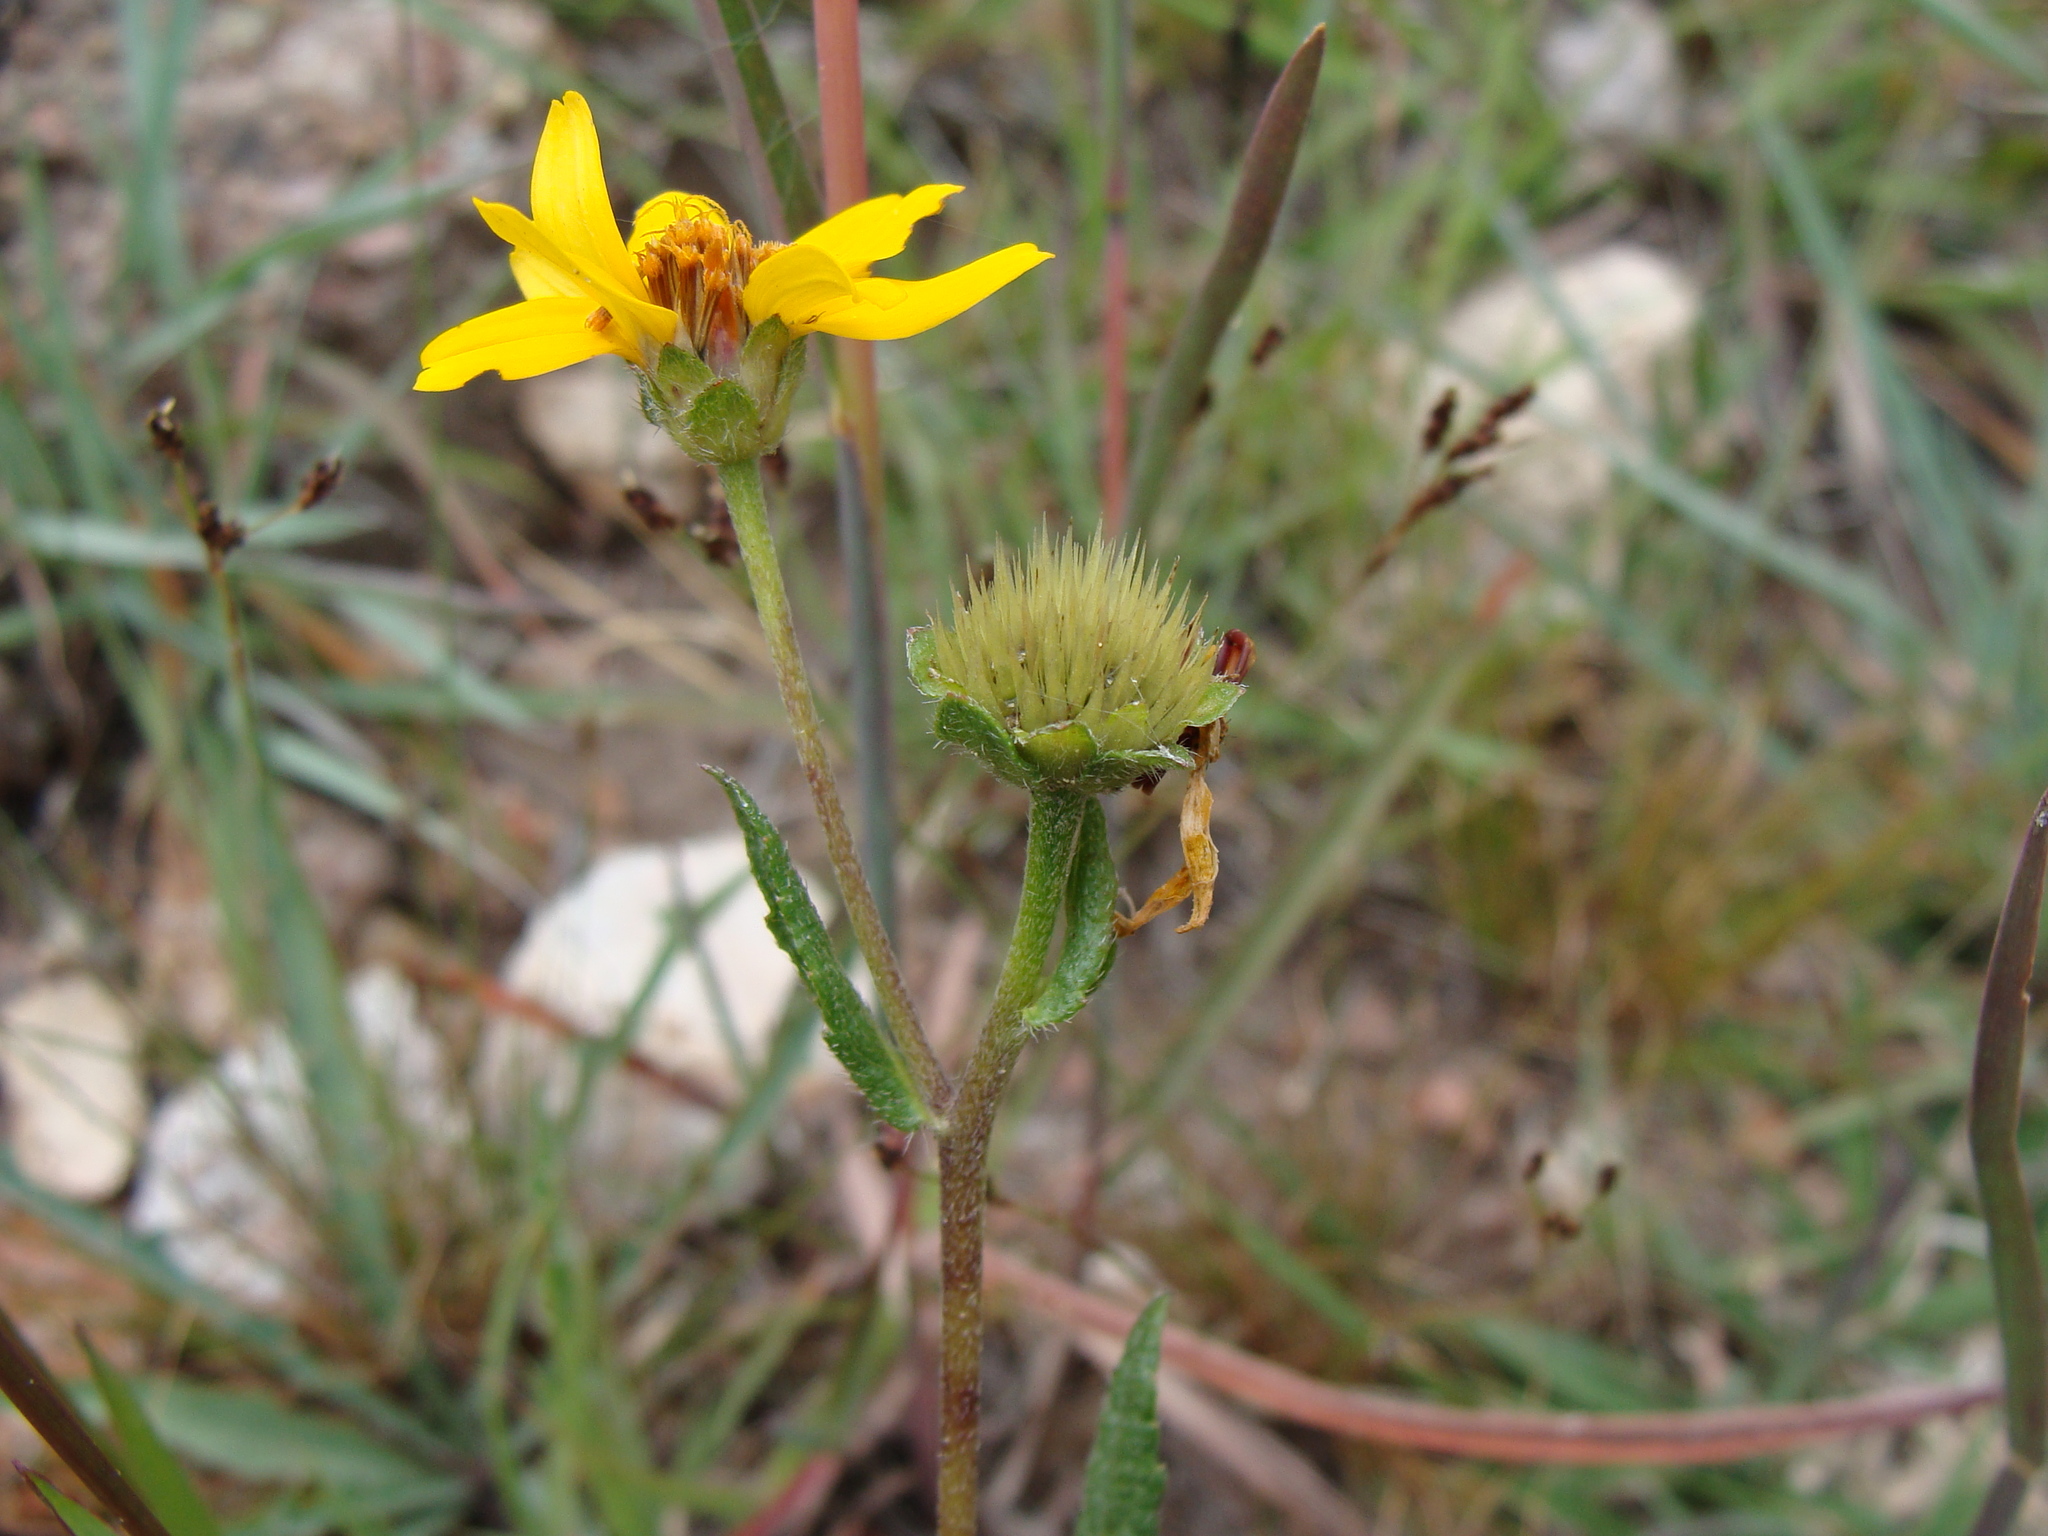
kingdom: Plantae
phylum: Tracheophyta
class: Magnoliopsida
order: Asterales
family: Asteraceae
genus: Lasianthaea
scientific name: Lasianthaea aurea
